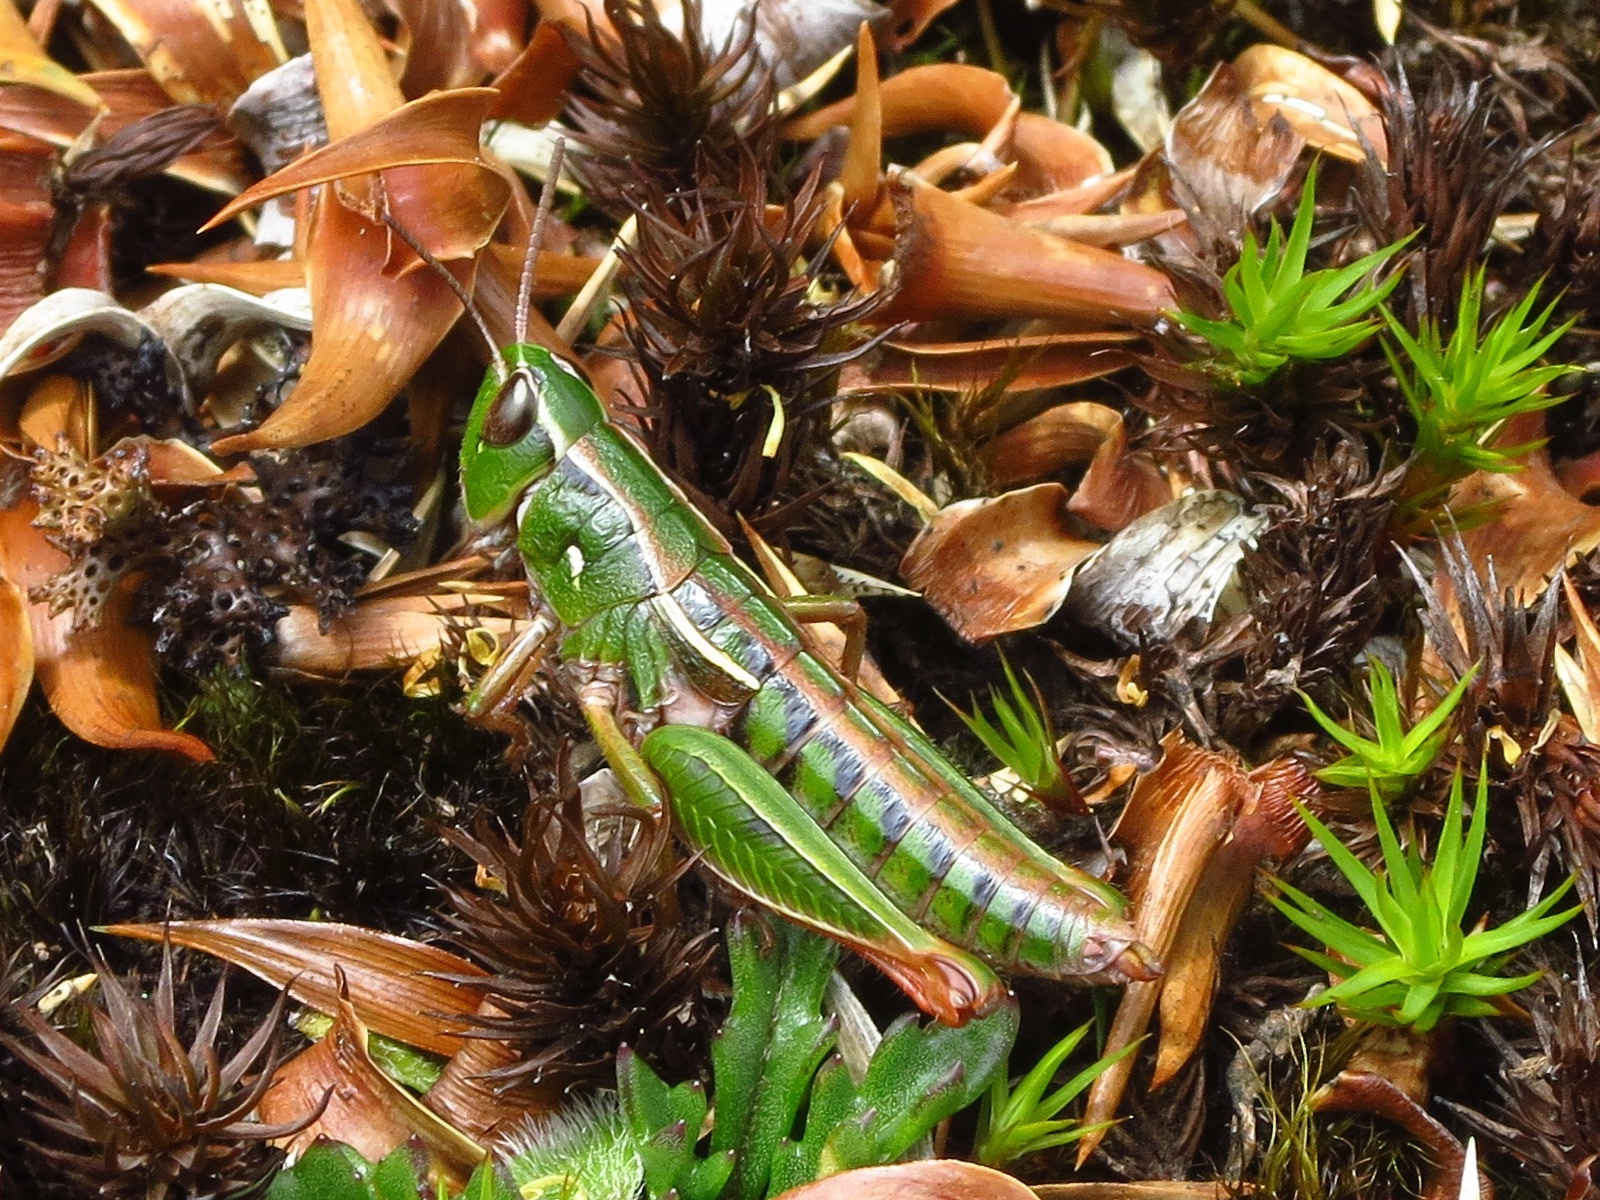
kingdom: Animalia
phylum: Arthropoda
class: Insecta
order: Orthoptera
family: Acrididae
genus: Russalpia
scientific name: Russalpia albertisi
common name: Tassie hopper
